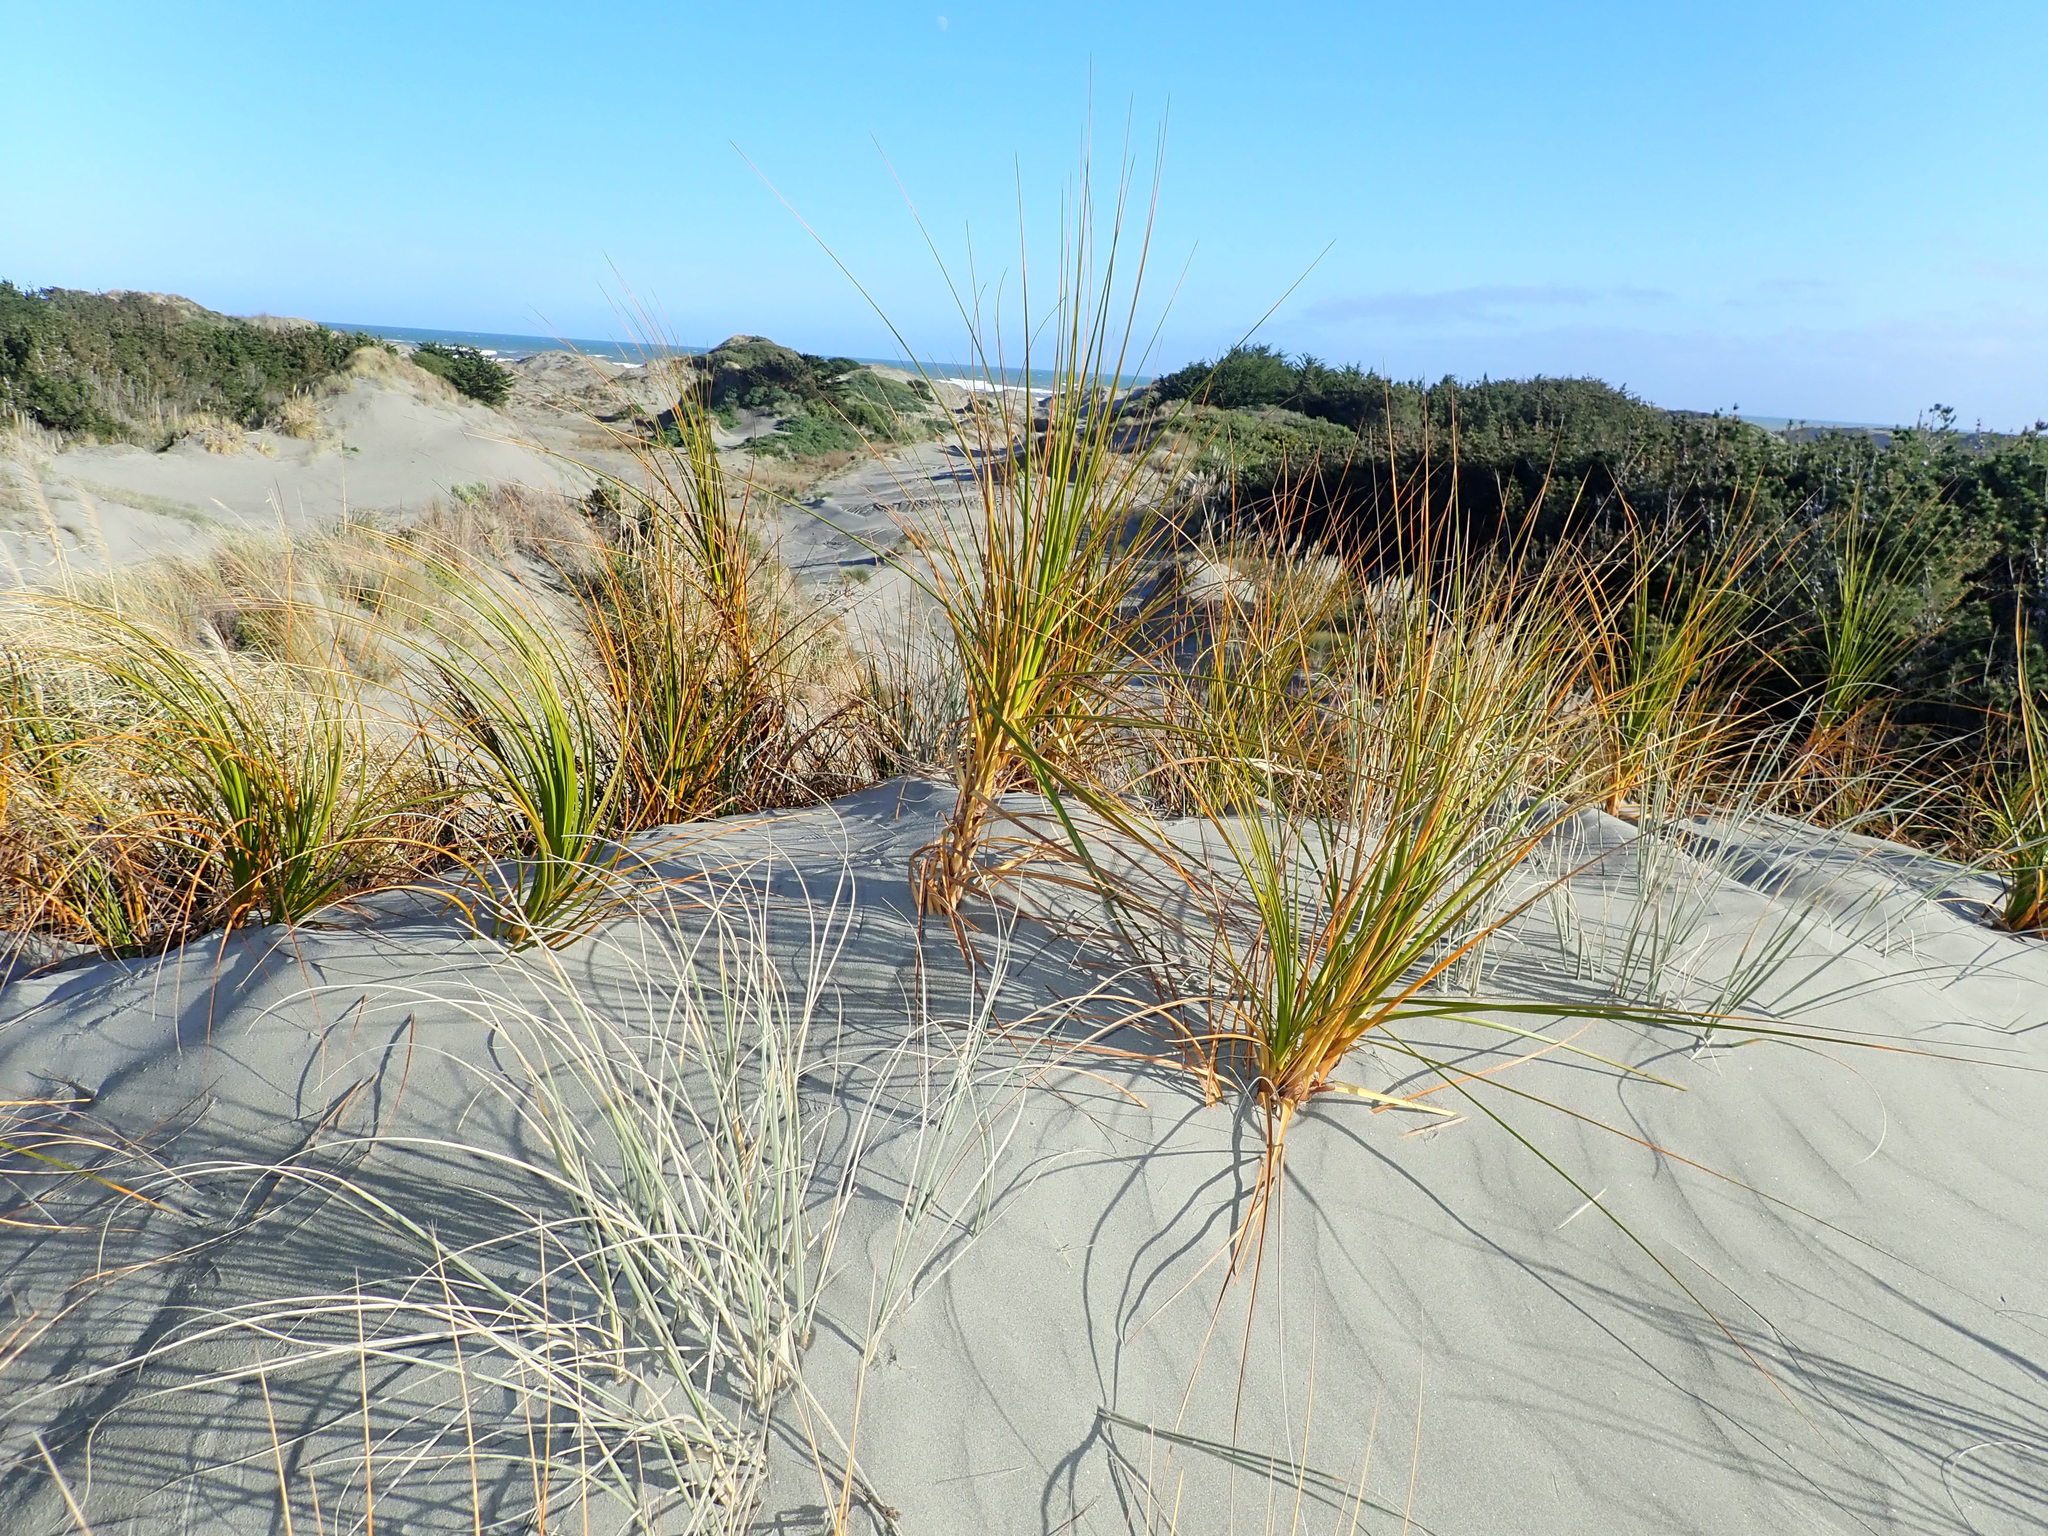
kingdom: Plantae
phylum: Tracheophyta
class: Liliopsida
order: Poales
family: Cyperaceae
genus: Ficinia
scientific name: Ficinia spiralis
